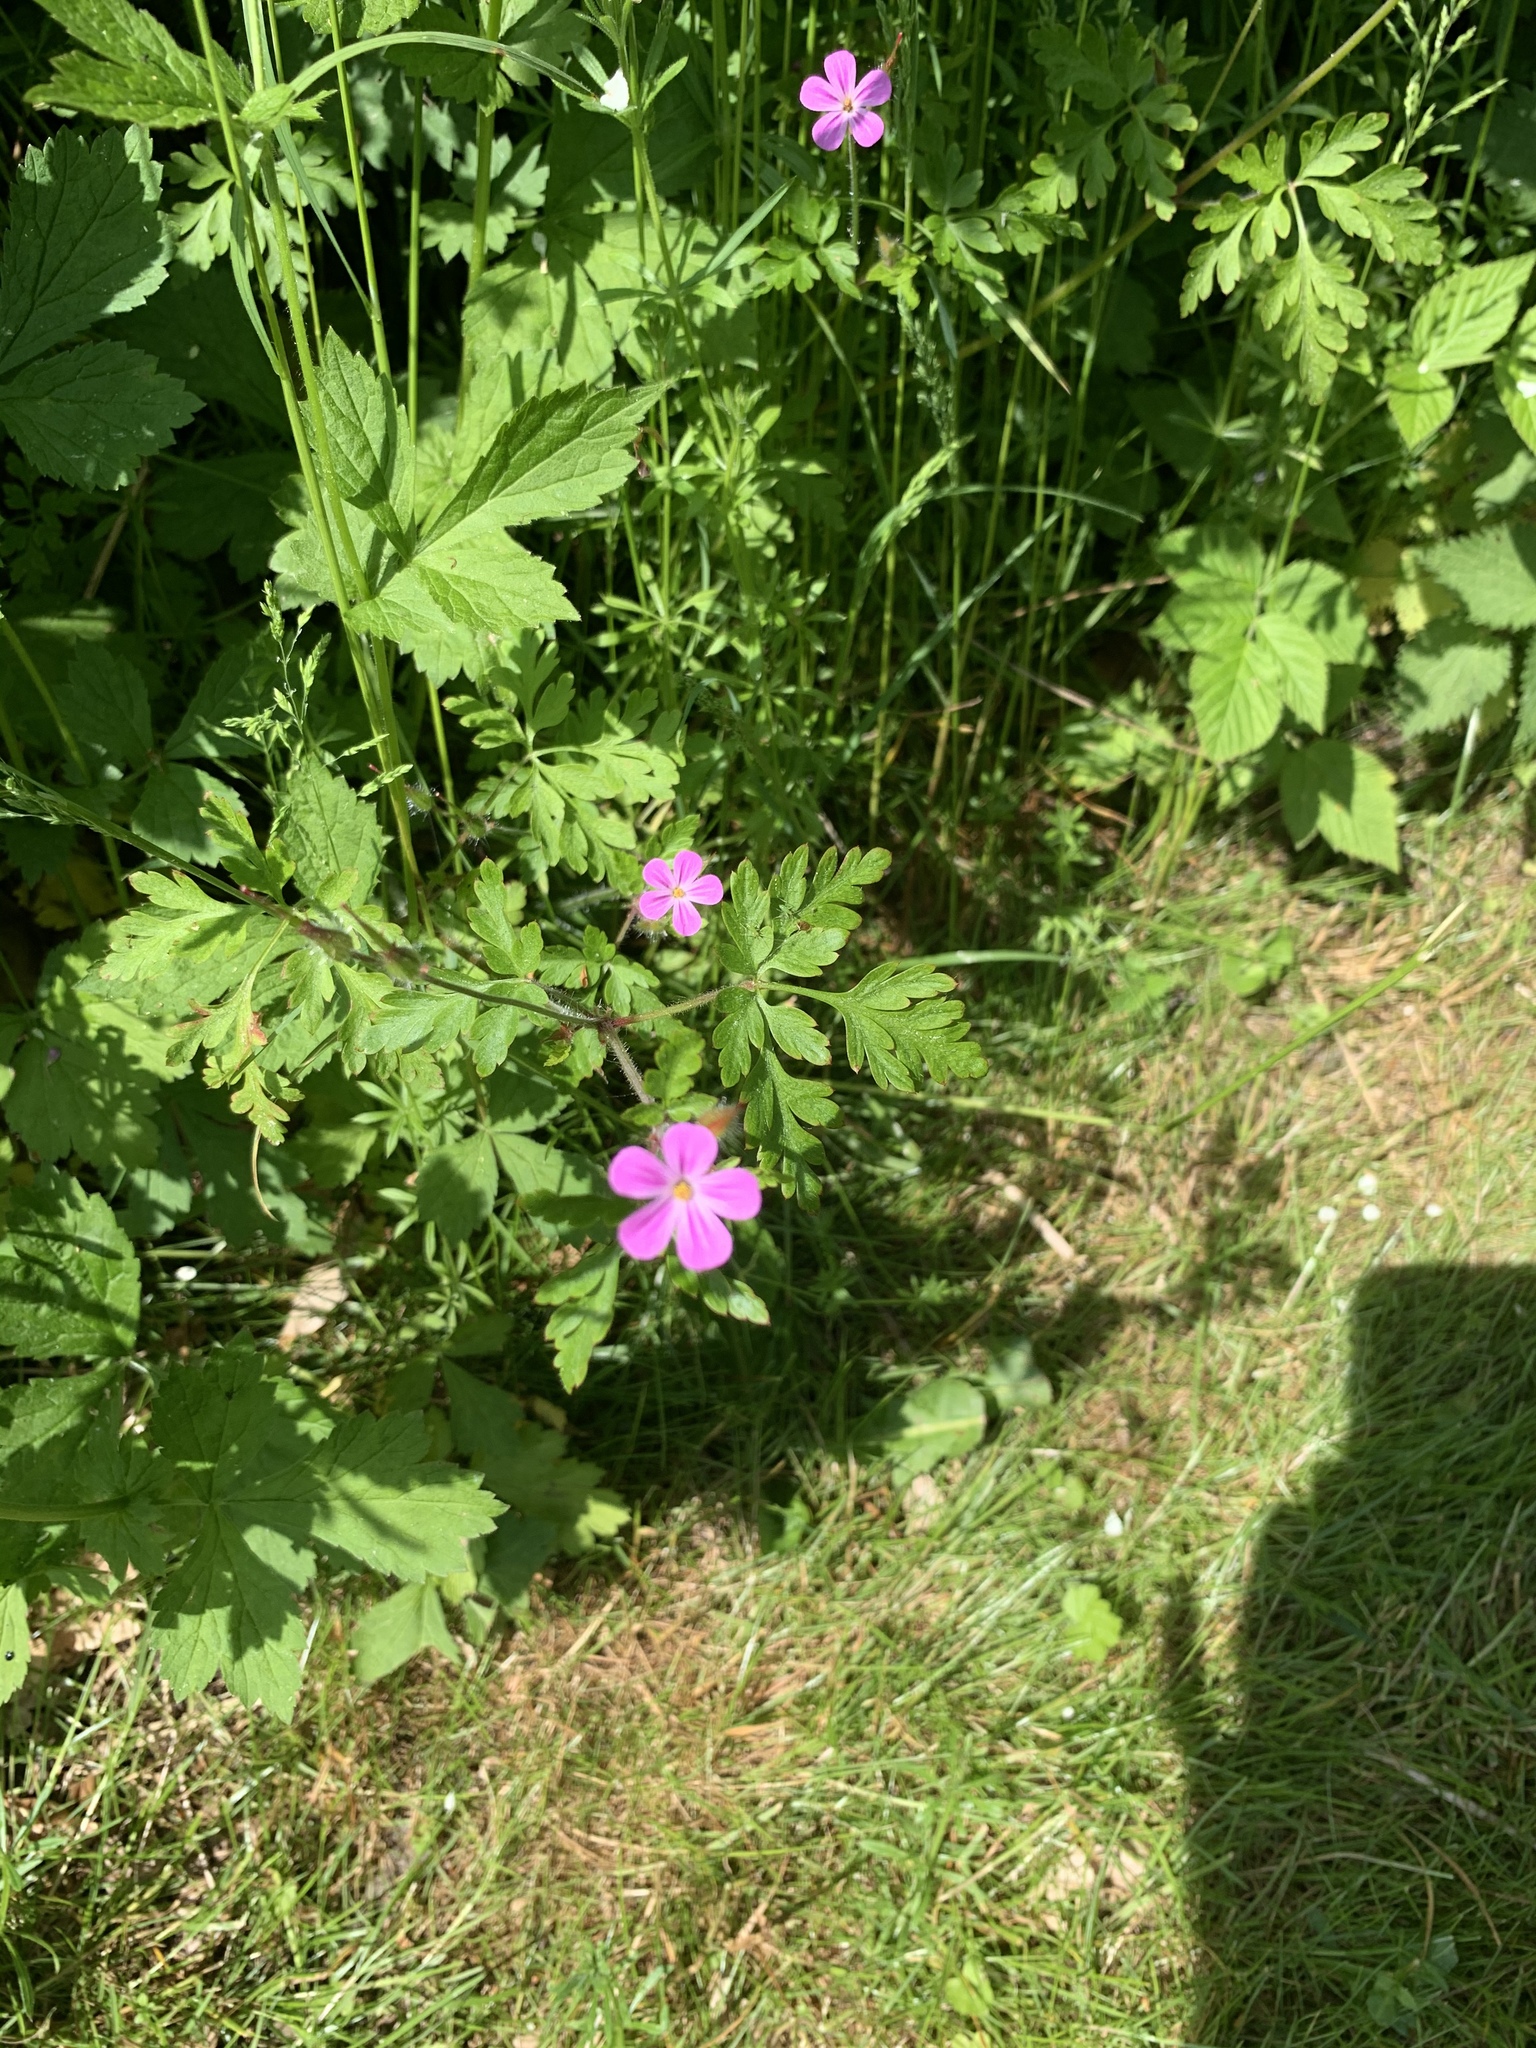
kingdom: Plantae
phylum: Tracheophyta
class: Magnoliopsida
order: Geraniales
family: Geraniaceae
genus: Geranium
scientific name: Geranium robertianum
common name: Herb-robert
